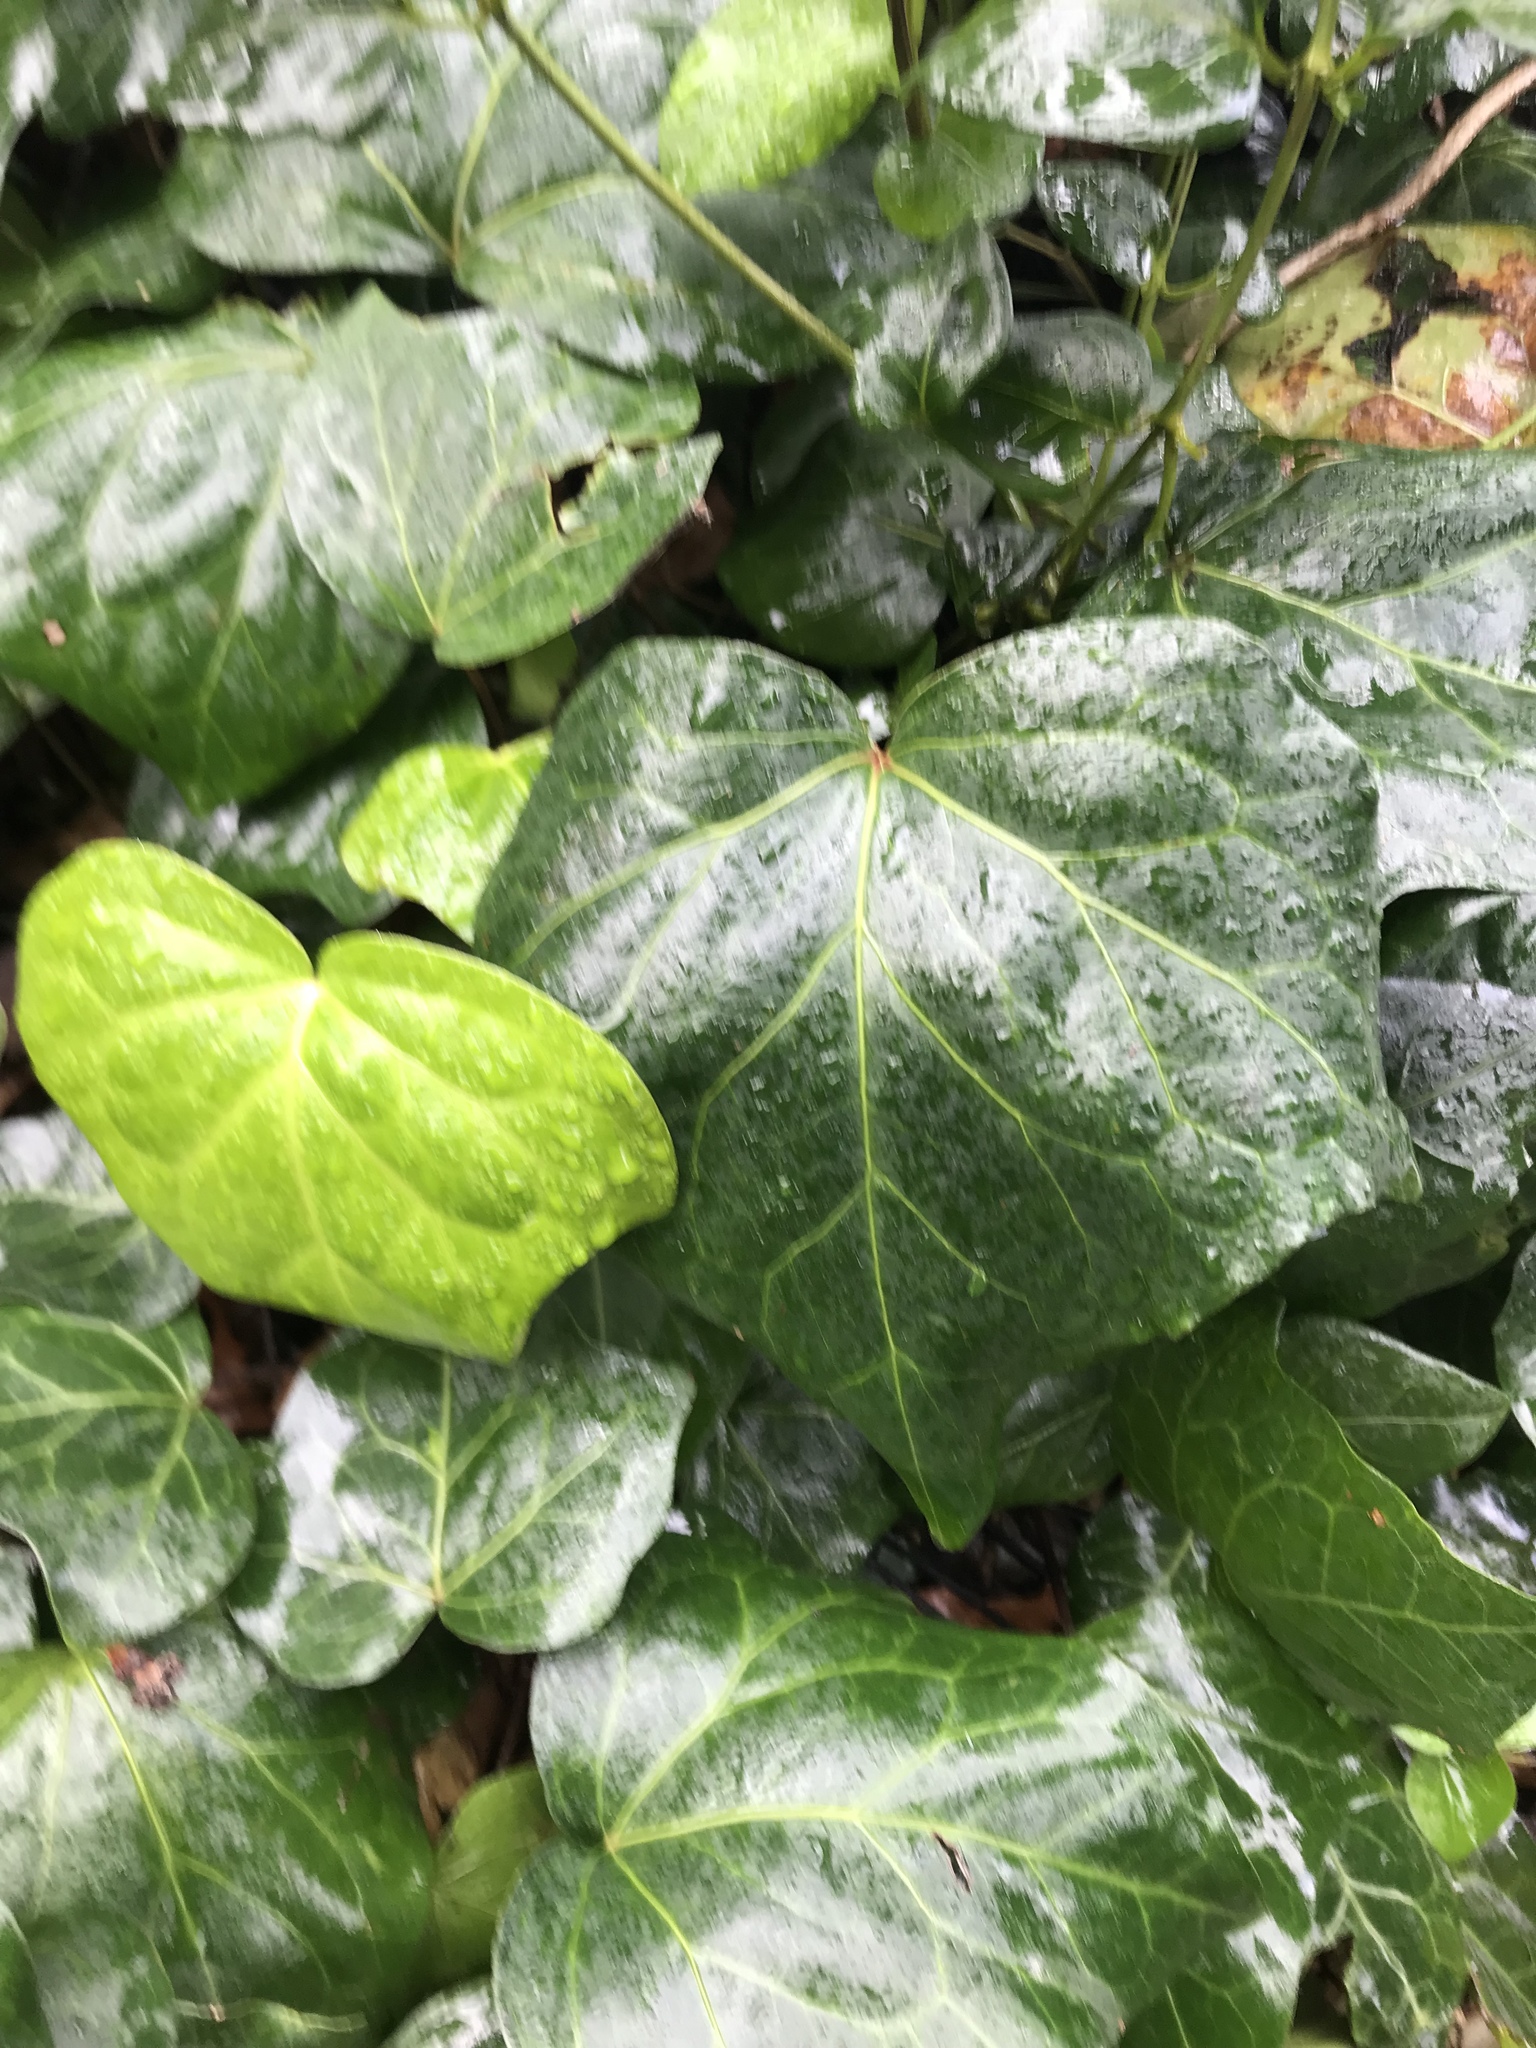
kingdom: Plantae
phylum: Tracheophyta
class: Magnoliopsida
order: Apiales
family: Araliaceae
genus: Hedera
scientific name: Hedera helix
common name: Ivy
